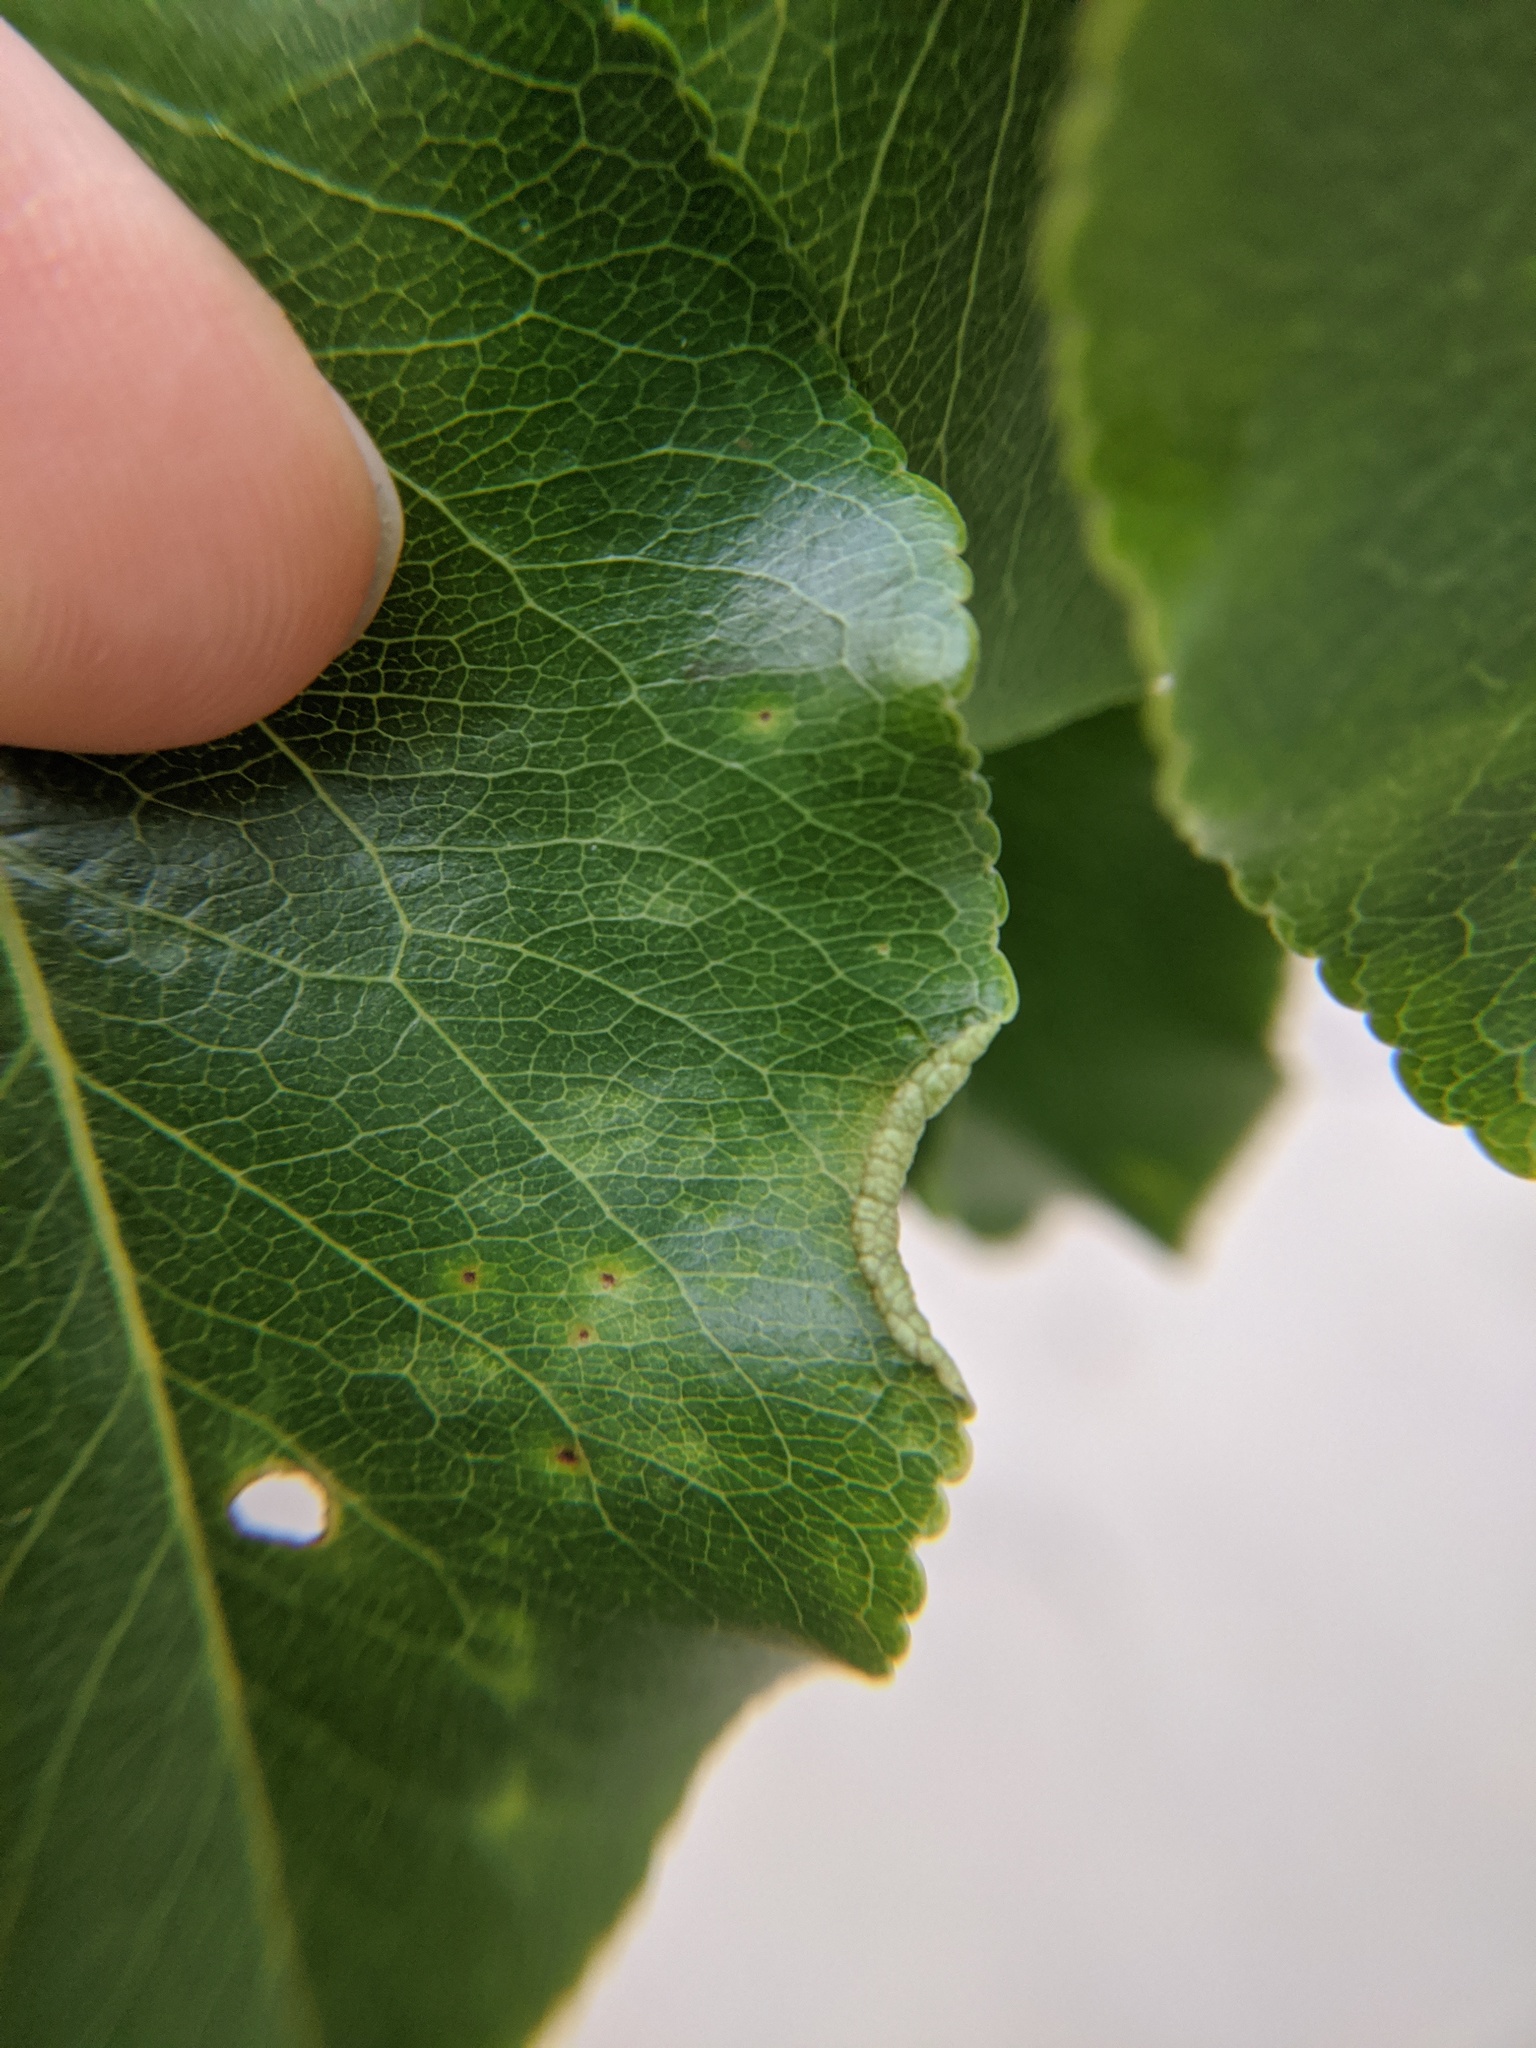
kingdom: Animalia
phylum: Arthropoda
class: Arachnida
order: Trombidiformes
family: Eriophyidae
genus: Eriophyes
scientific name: Eriophyes marginemtorquens
